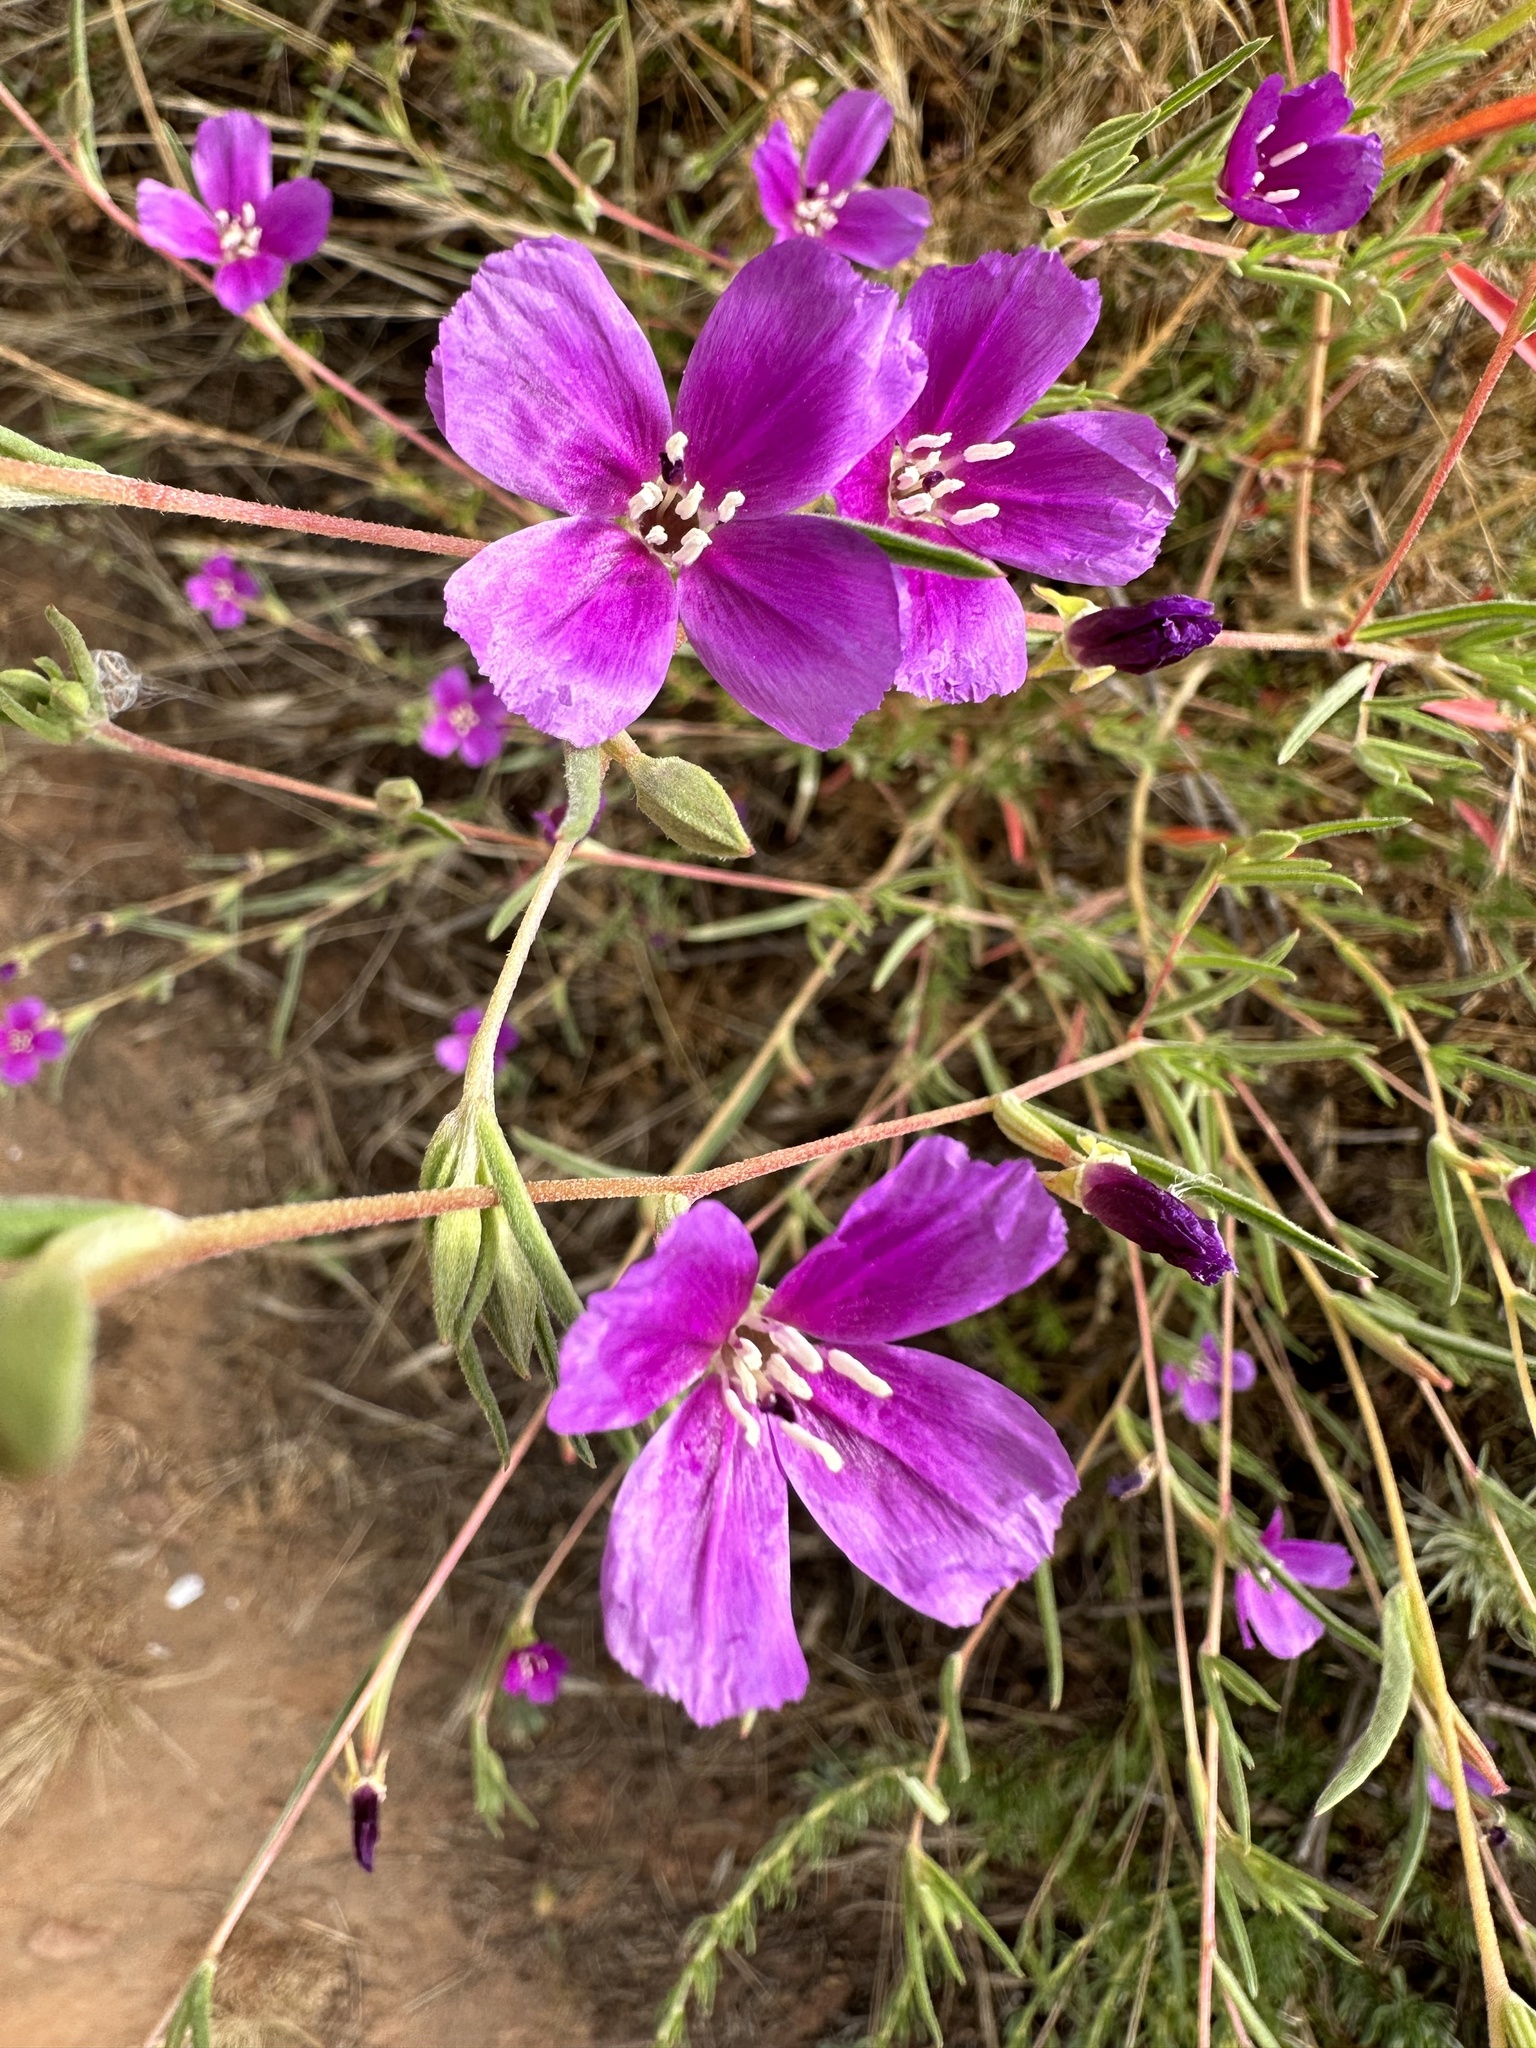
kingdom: Plantae
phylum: Tracheophyta
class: Magnoliopsida
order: Myrtales
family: Onagraceae
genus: Clarkia
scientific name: Clarkia purpurea
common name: Purple clarkia
